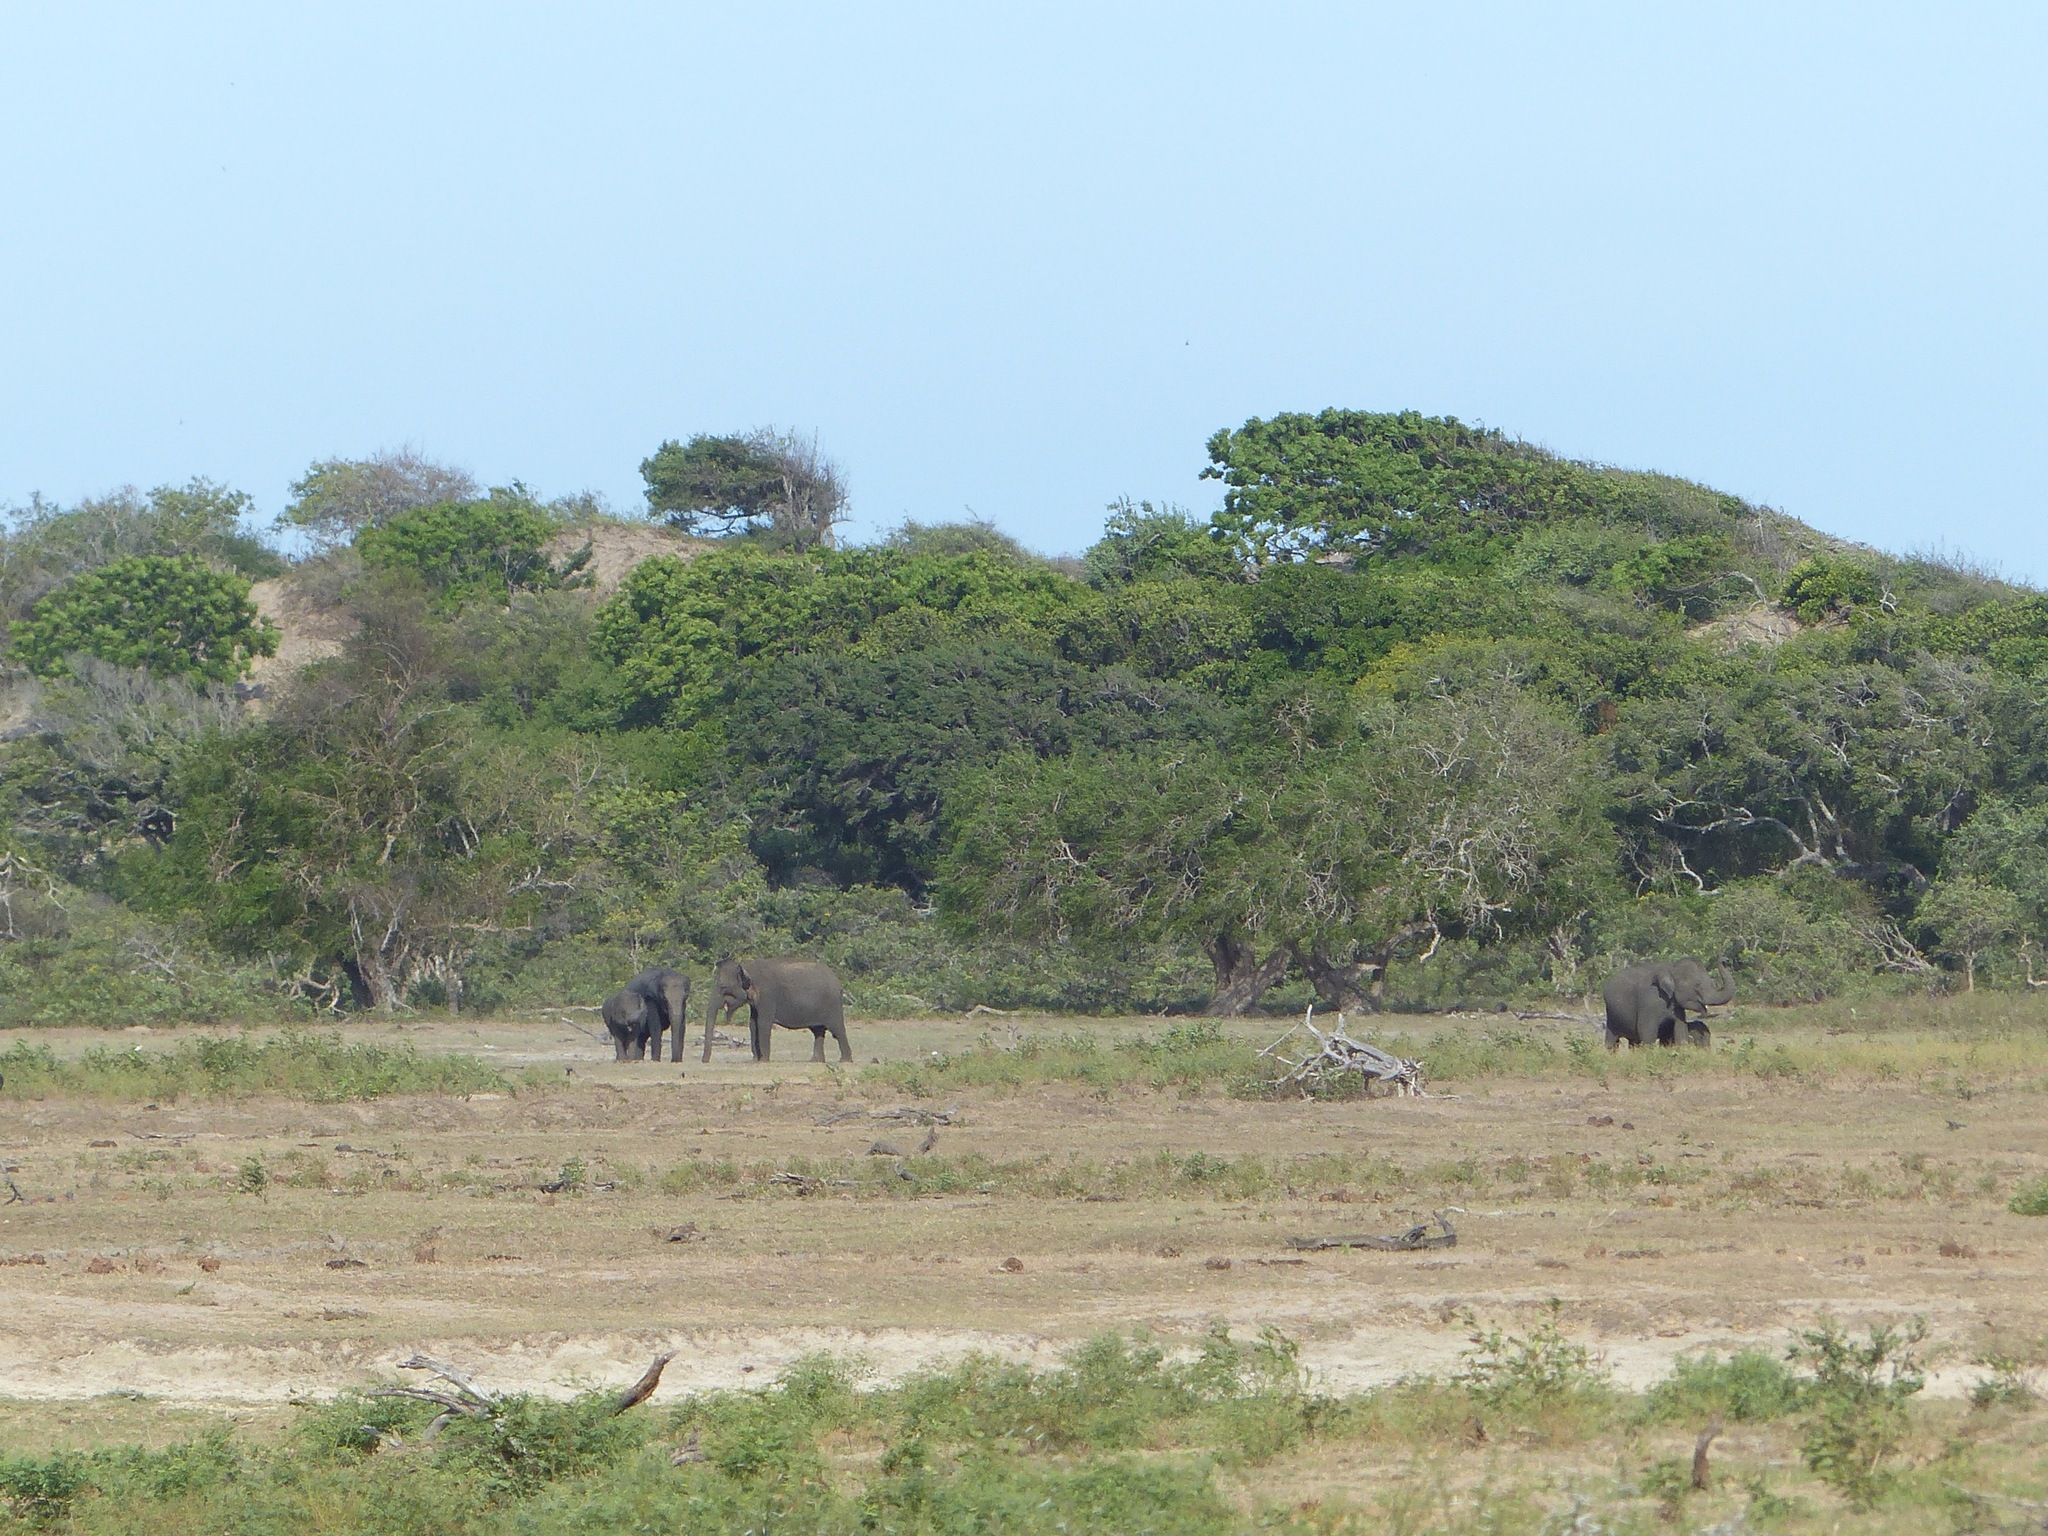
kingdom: Animalia
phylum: Chordata
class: Mammalia
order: Proboscidea
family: Elephantidae
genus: Elephas
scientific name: Elephas maximus
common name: Asian elephant
